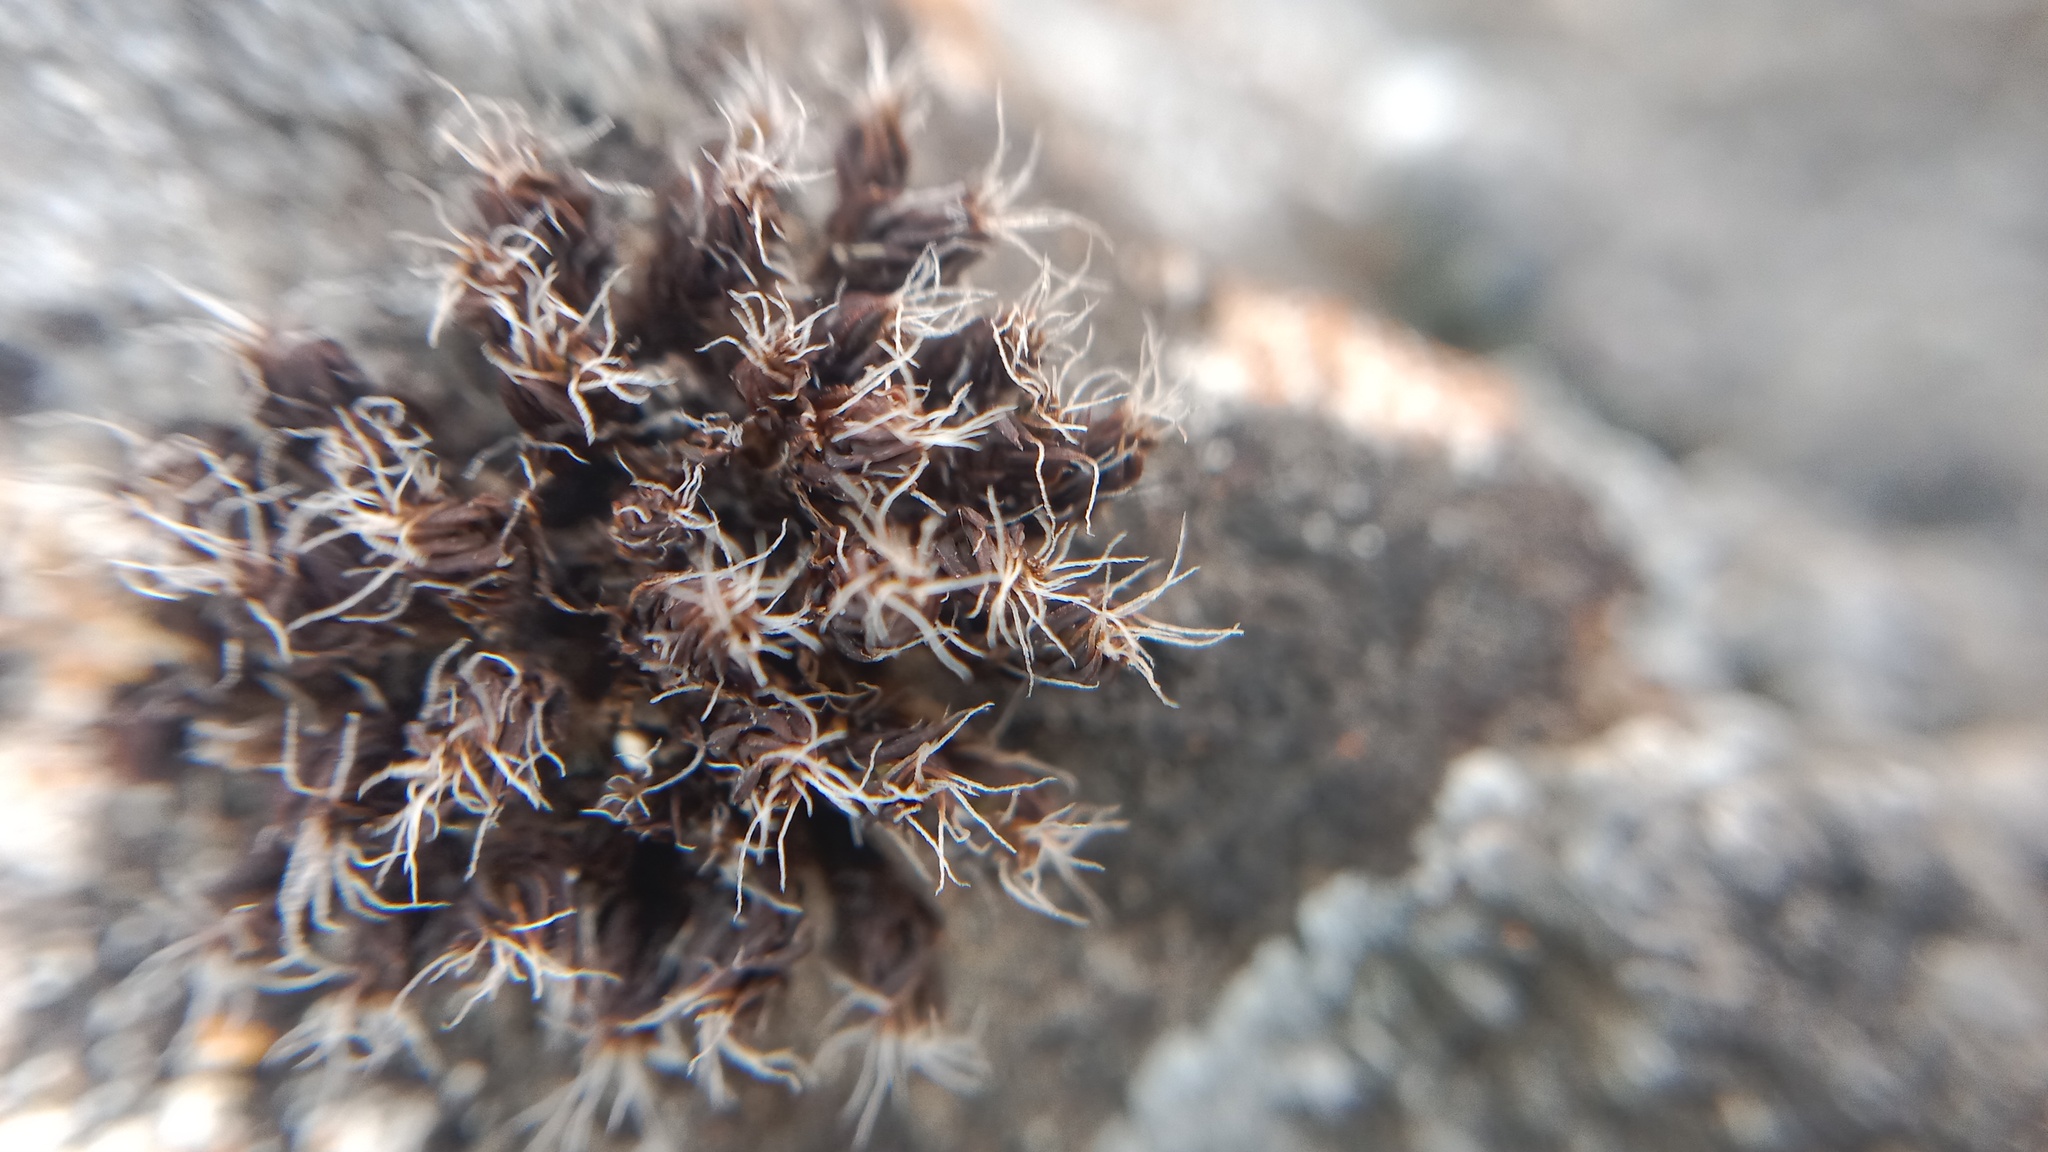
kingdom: Plantae
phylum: Bryophyta
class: Bryopsida
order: Pottiales
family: Pottiaceae
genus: Syntrichia
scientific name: Syntrichia ruralis
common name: Sidewalk screw moss
